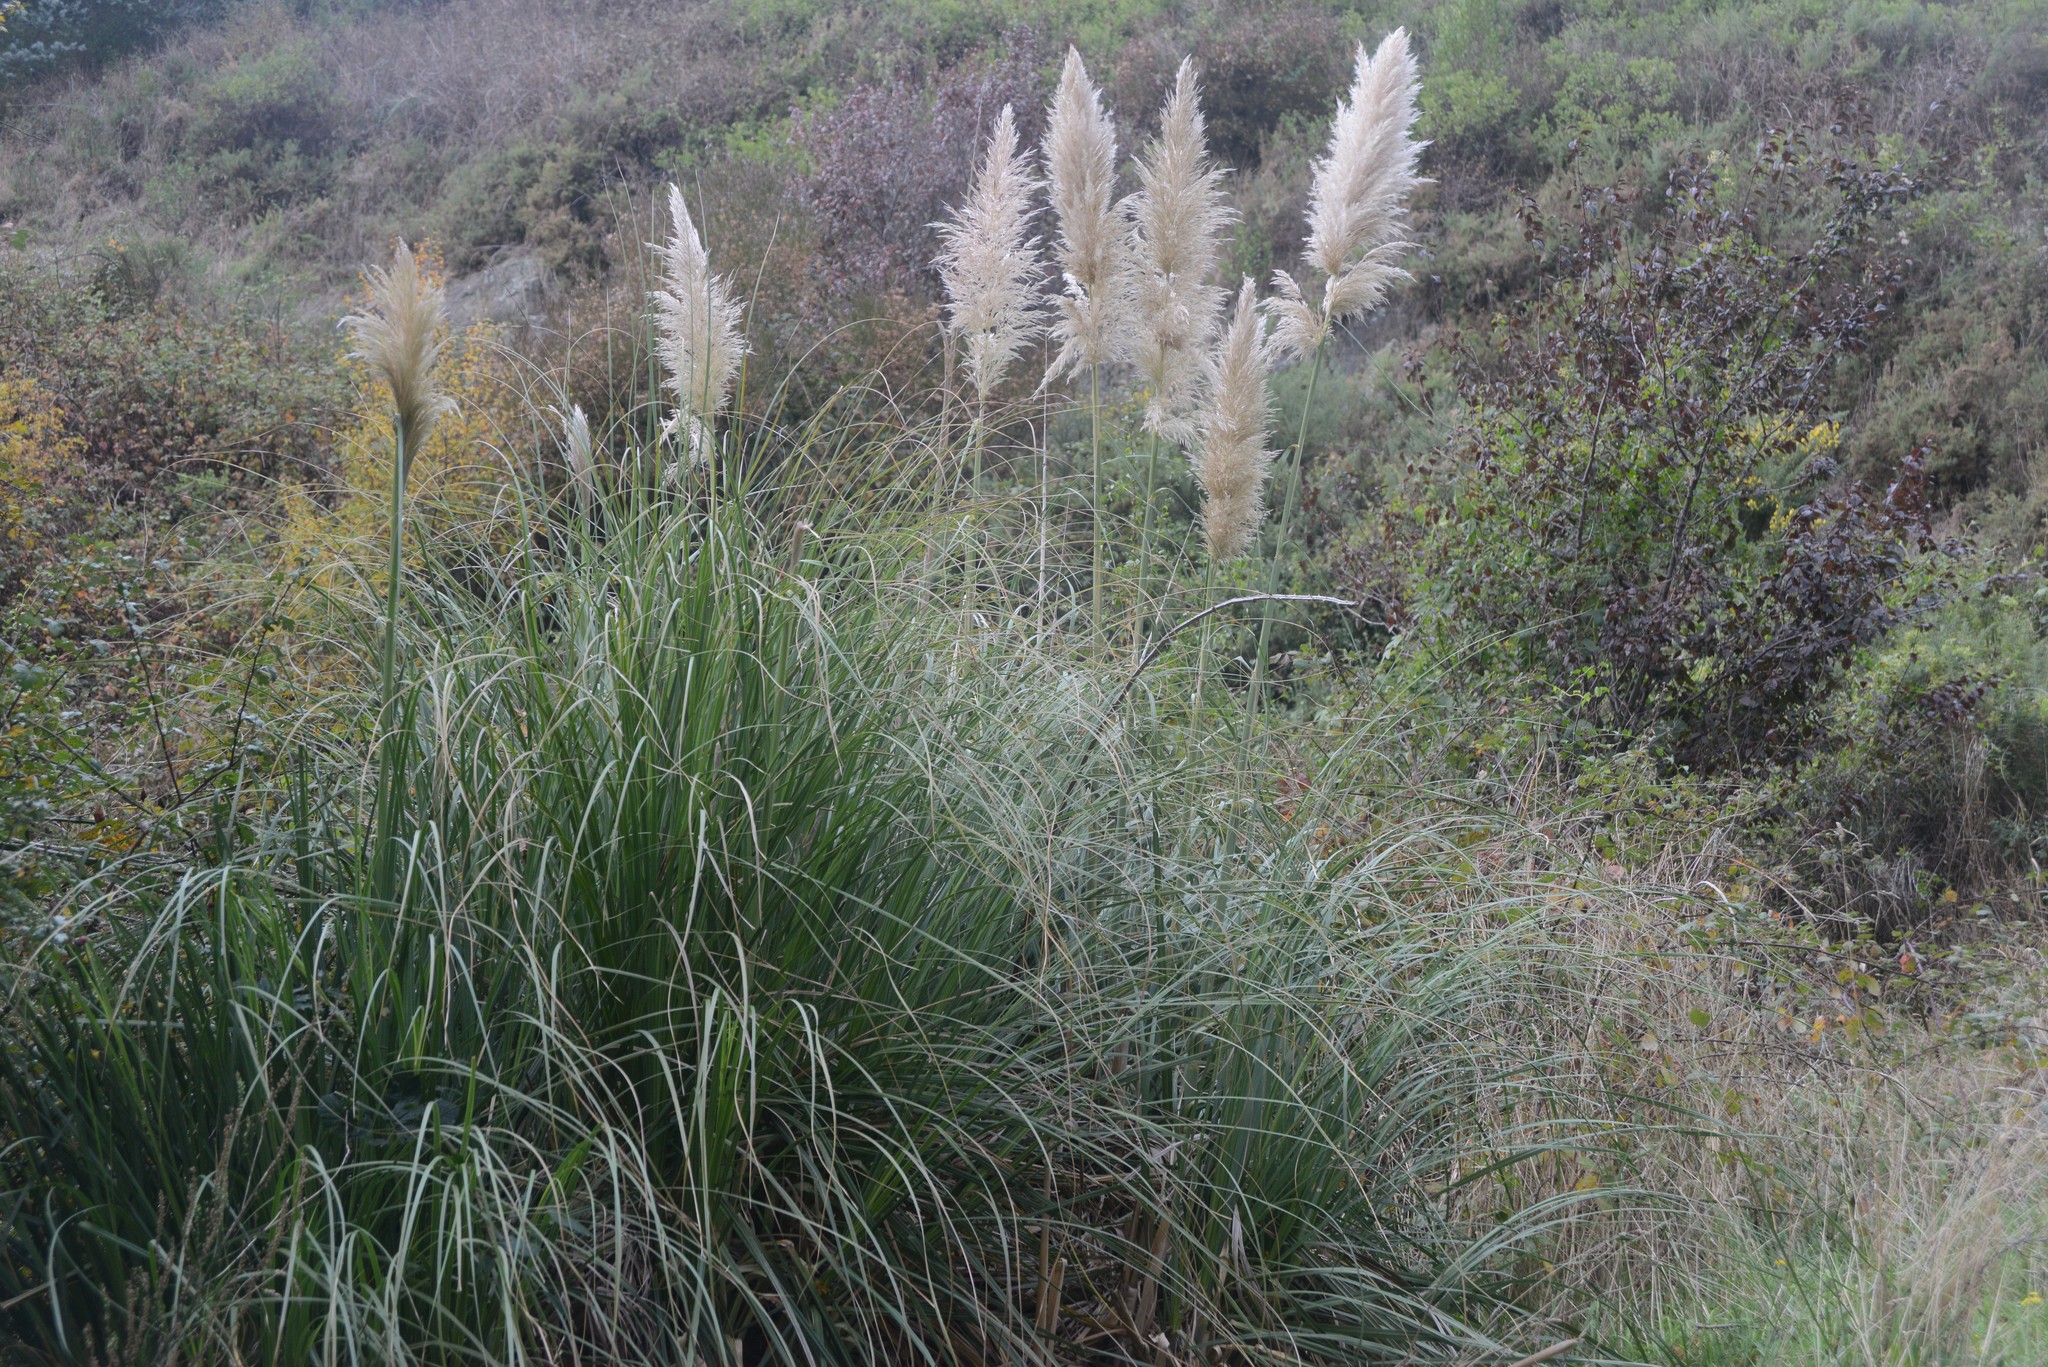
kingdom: Plantae
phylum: Tracheophyta
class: Liliopsida
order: Poales
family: Poaceae
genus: Cortaderia
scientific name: Cortaderia selloana
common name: Uruguayan pampas grass
